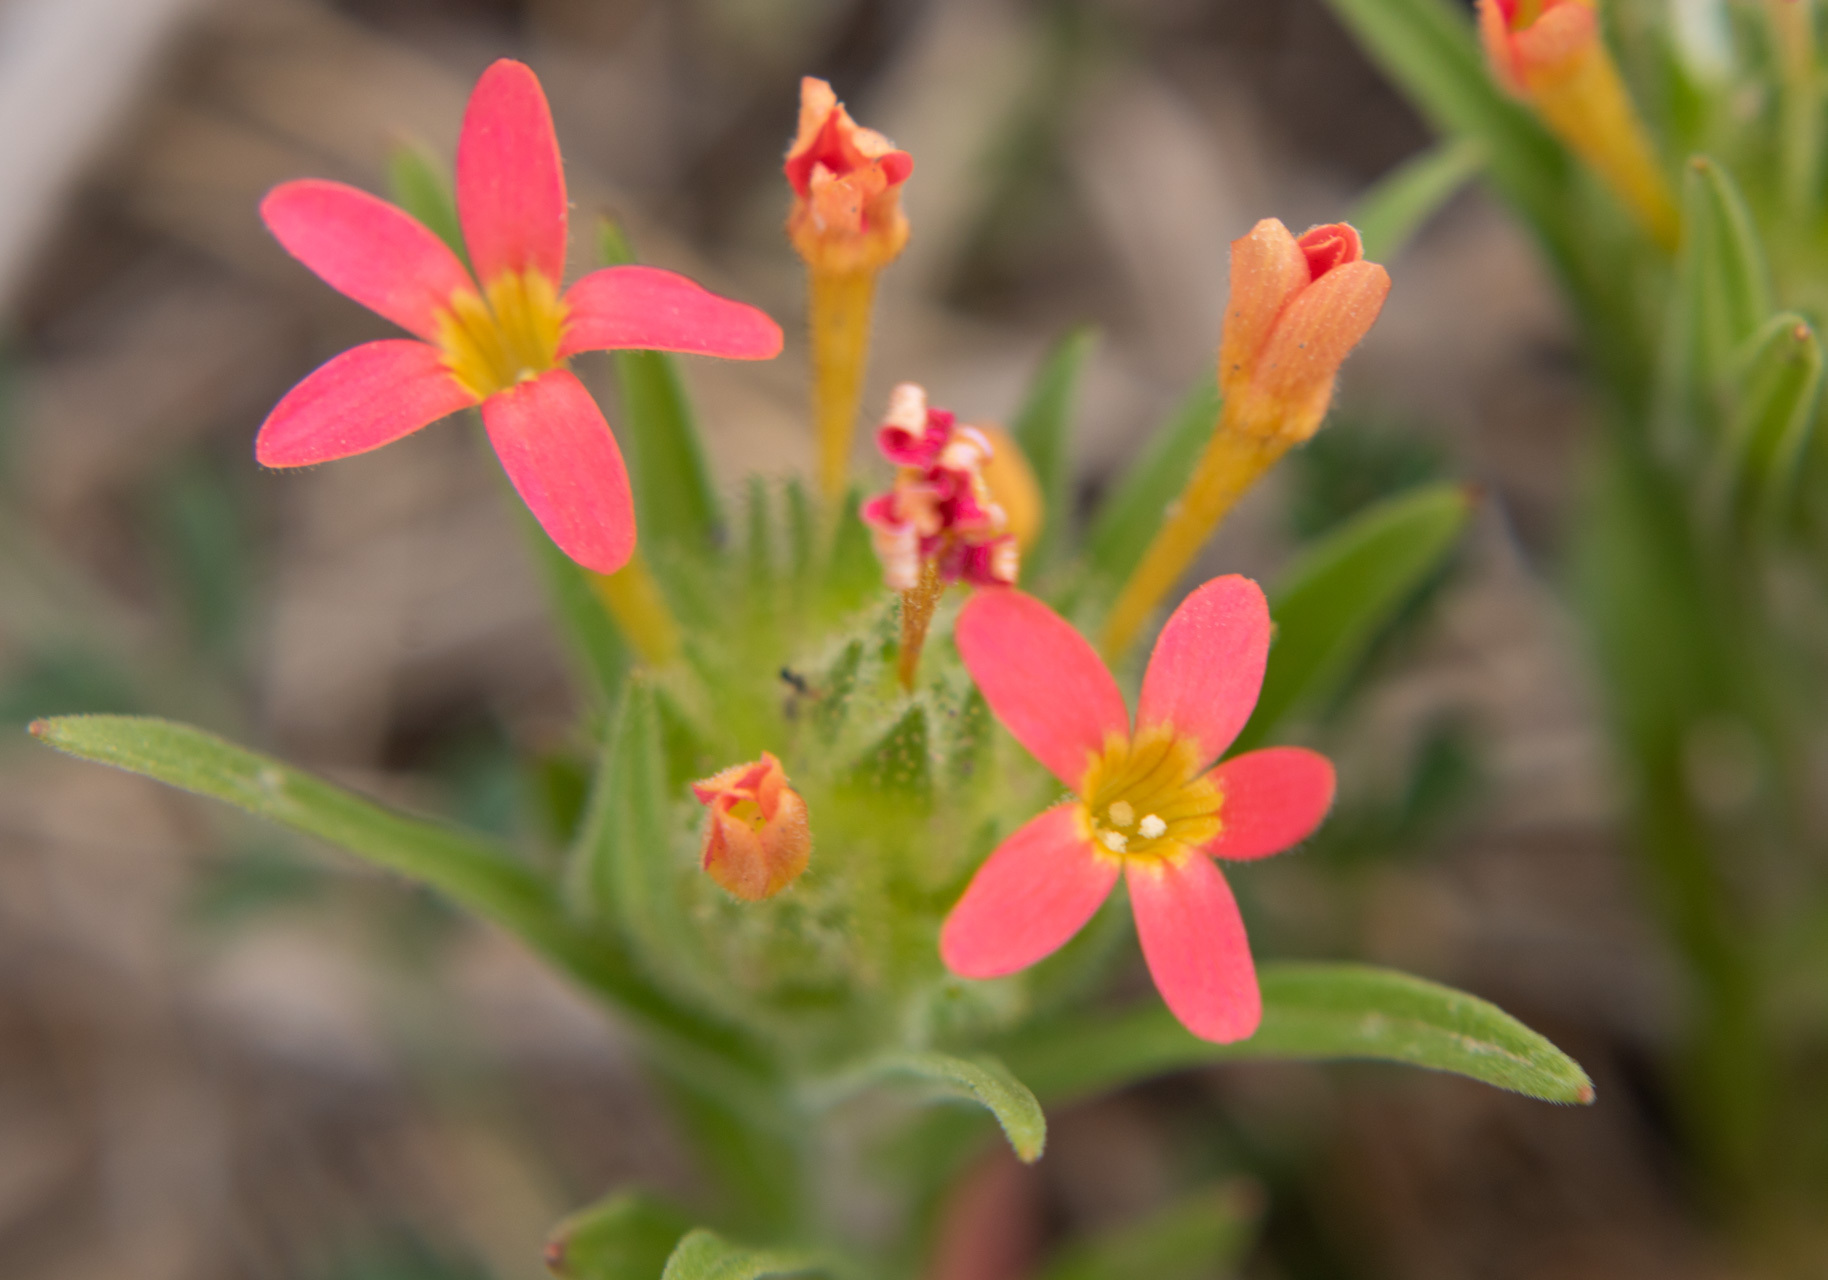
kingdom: Plantae
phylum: Tracheophyta
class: Magnoliopsida
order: Ericales
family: Polemoniaceae
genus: Collomia
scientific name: Collomia biflora
